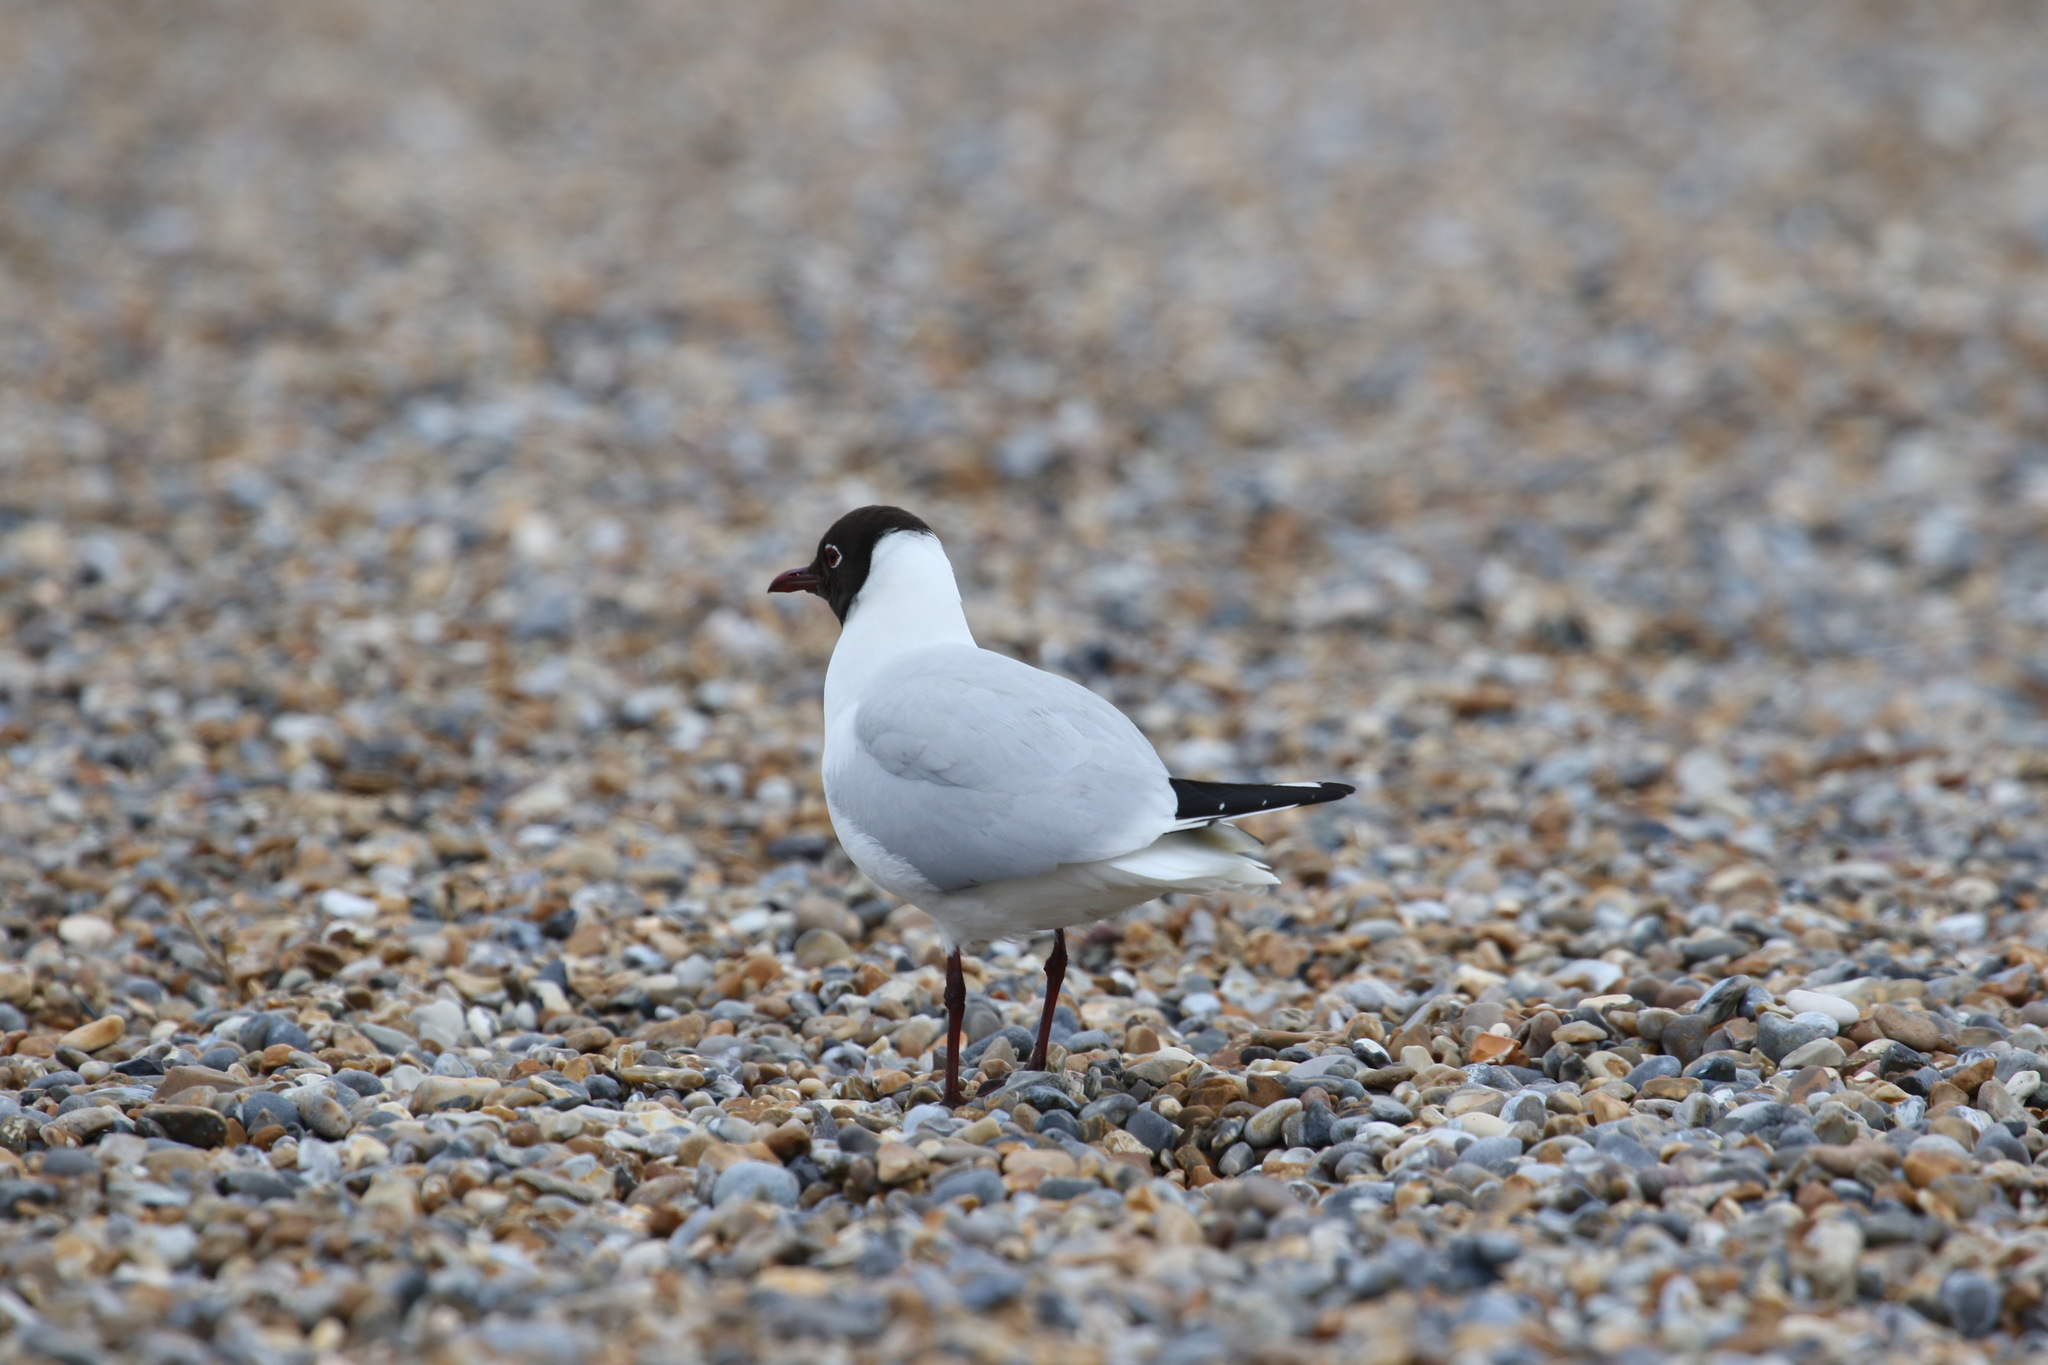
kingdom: Animalia
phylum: Chordata
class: Aves
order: Charadriiformes
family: Laridae
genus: Chroicocephalus
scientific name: Chroicocephalus ridibundus
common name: Black-headed gull
